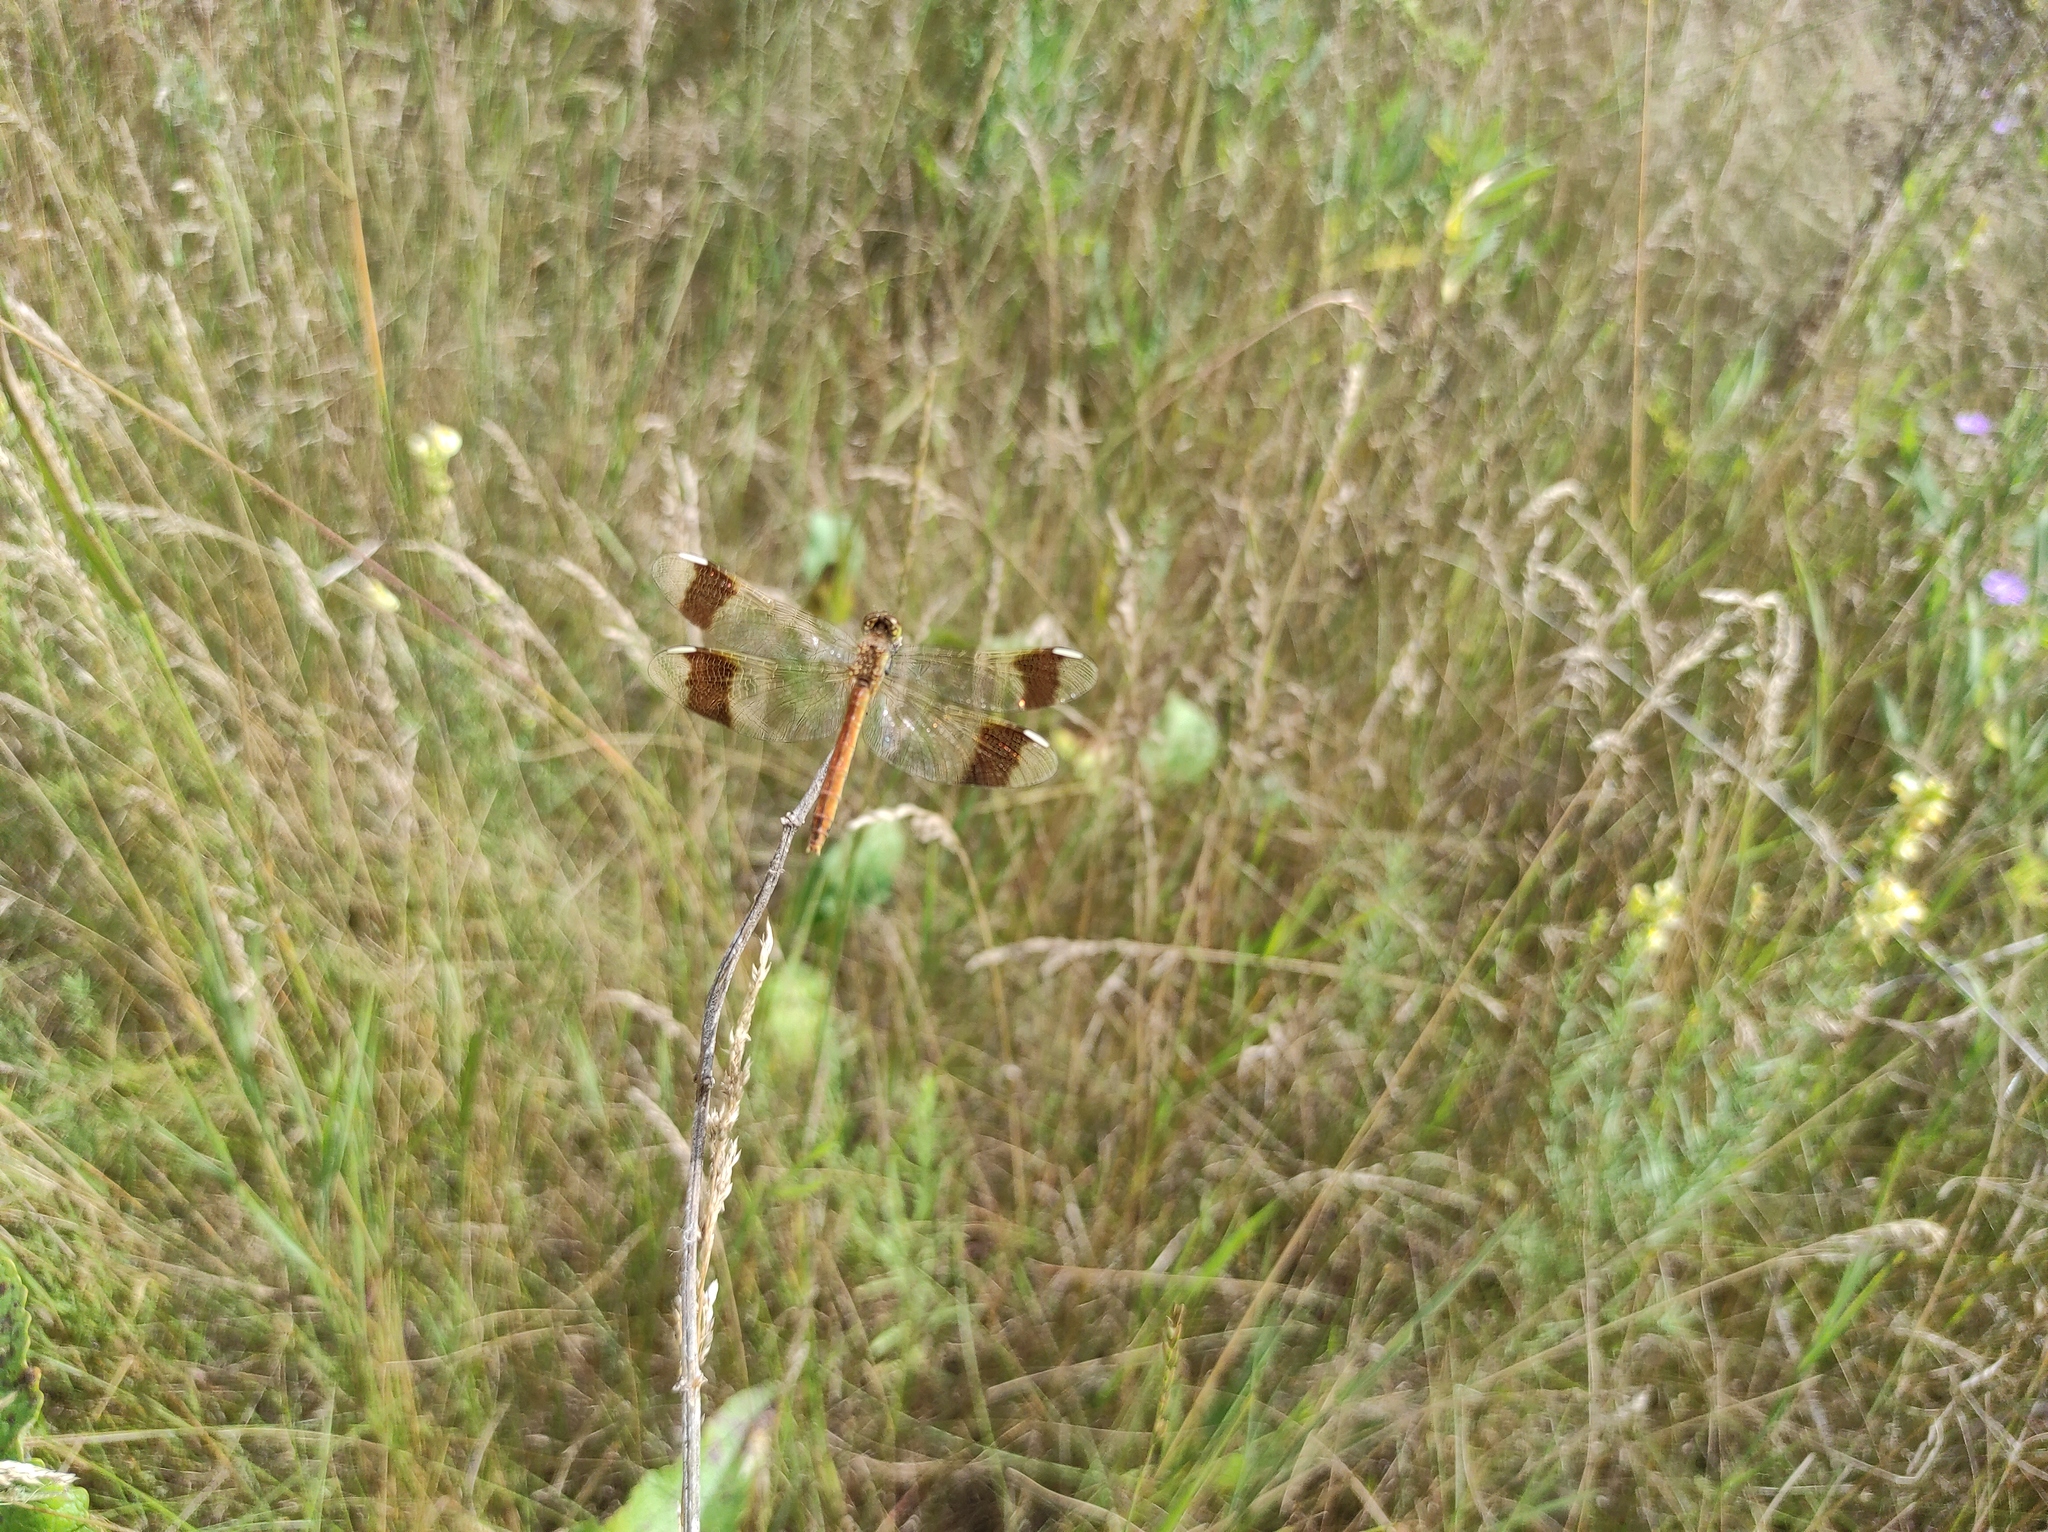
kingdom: Animalia
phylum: Arthropoda
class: Insecta
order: Odonata
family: Libellulidae
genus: Sympetrum
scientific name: Sympetrum pedemontanum
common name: Banded darter
